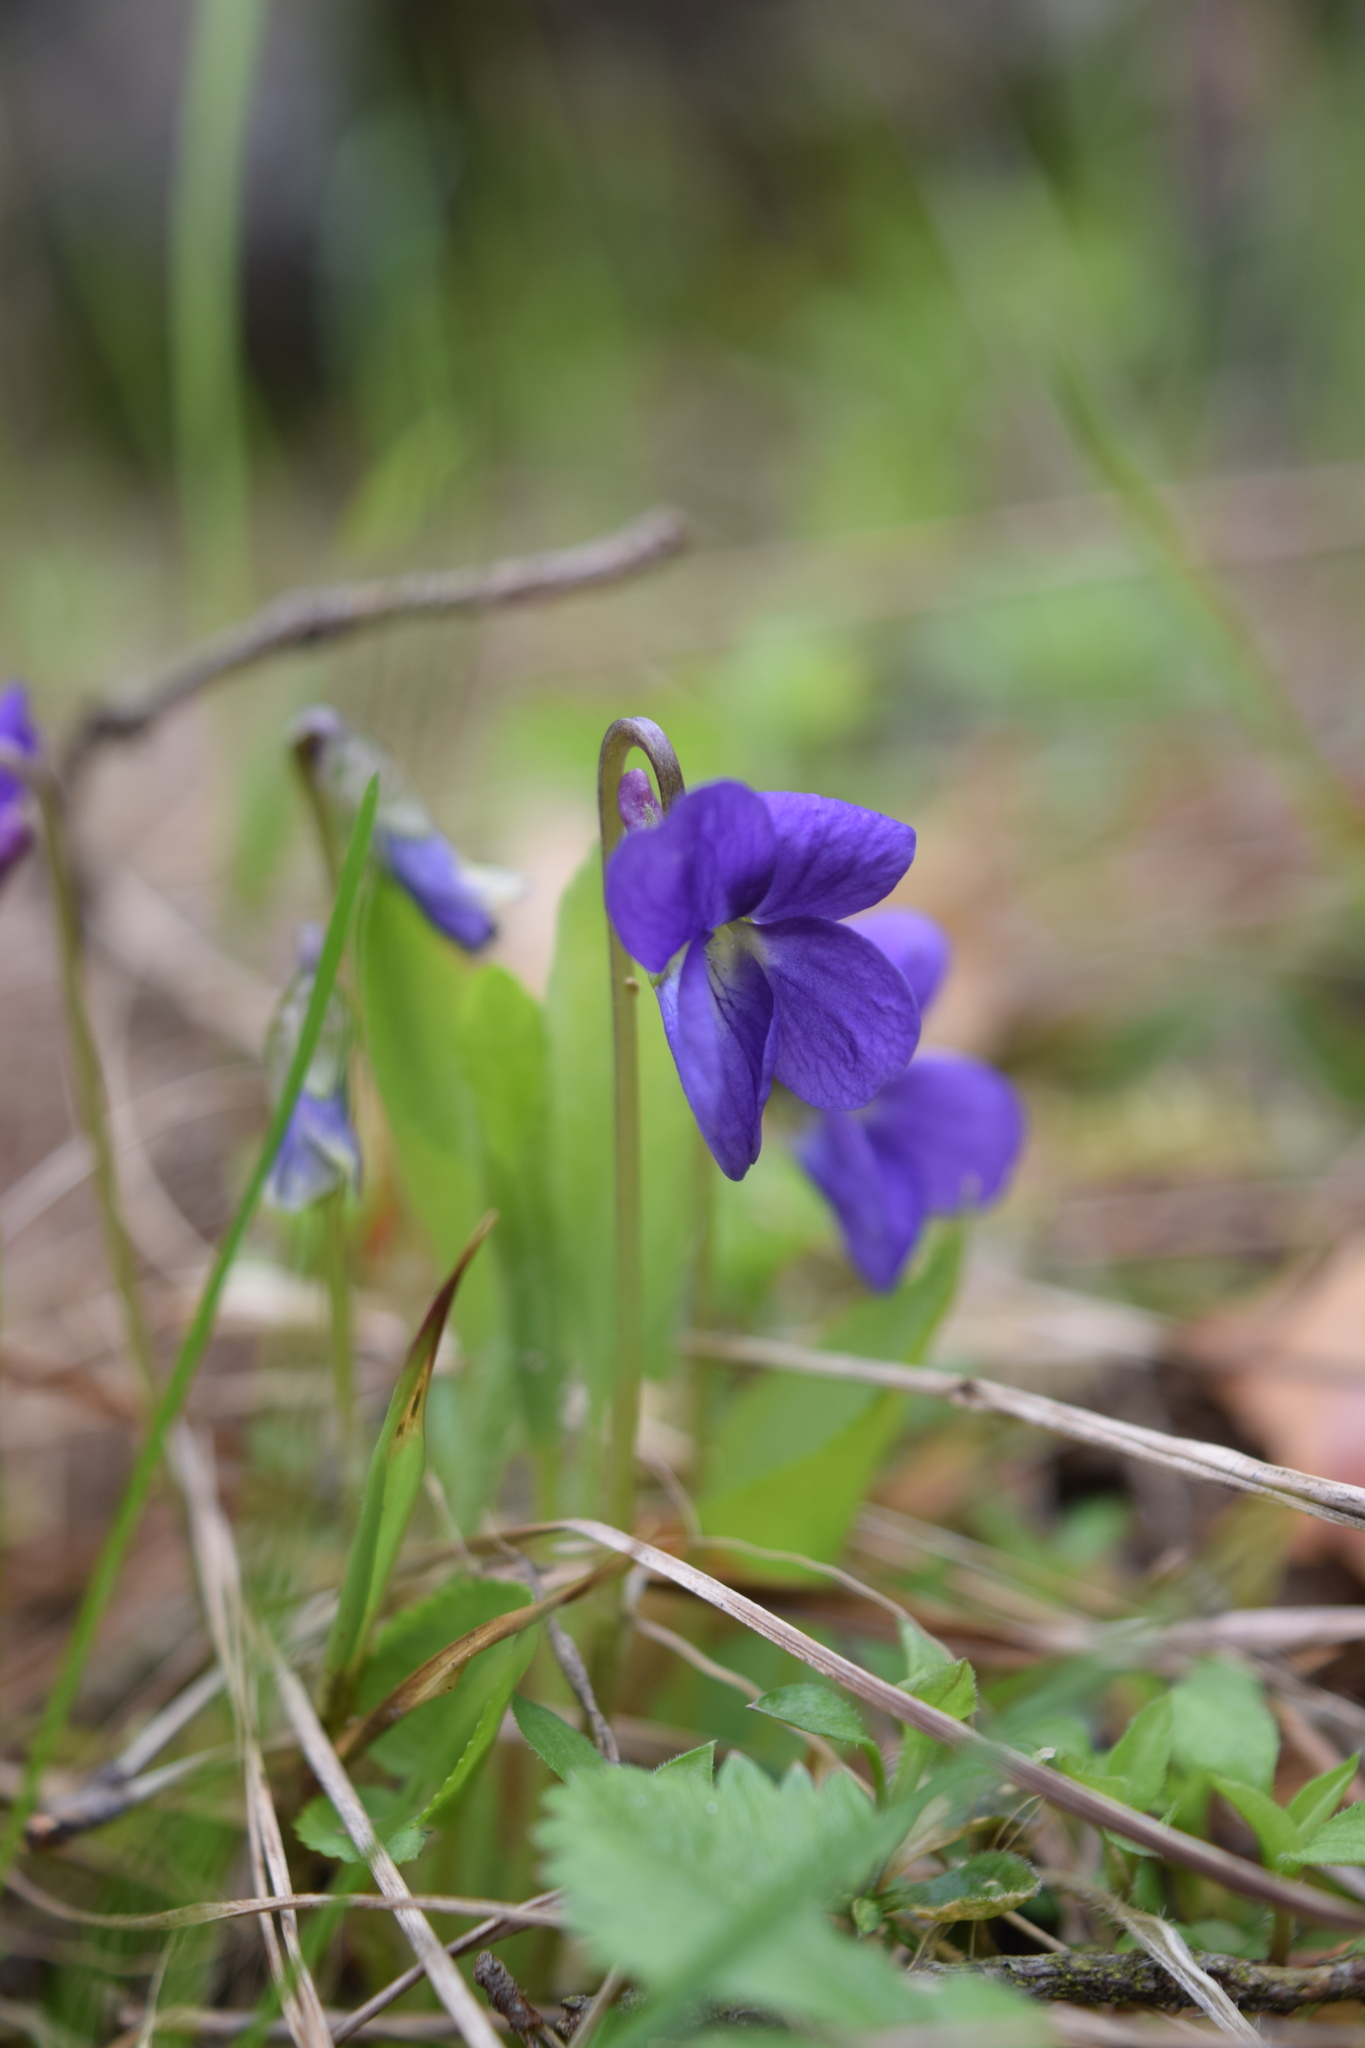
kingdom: Plantae
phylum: Tracheophyta
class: Magnoliopsida
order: Malpighiales
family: Violaceae
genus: Viola
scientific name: Viola hirta
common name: Hairy violet
